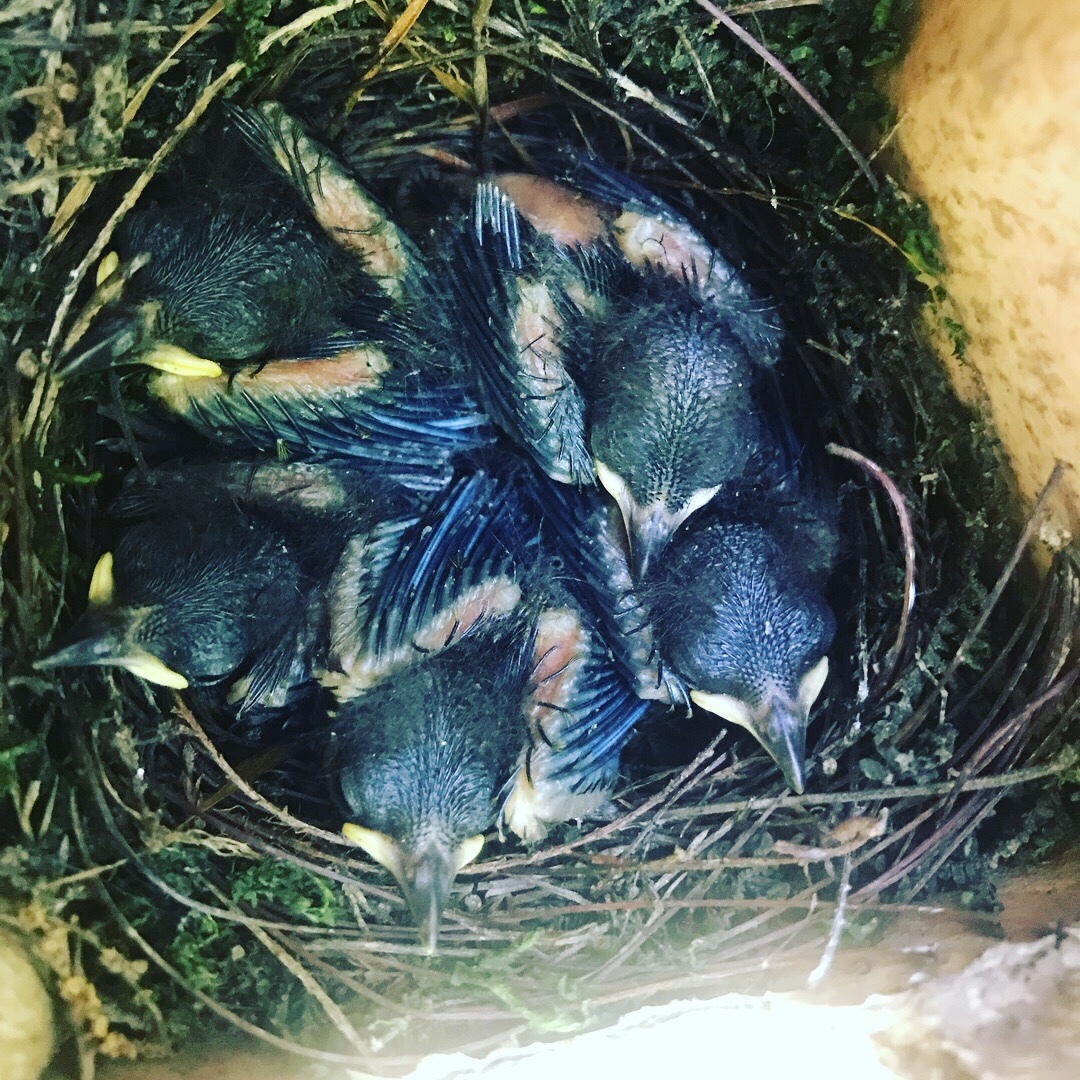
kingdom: Animalia
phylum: Chordata
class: Aves
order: Passeriformes
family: Parulidae
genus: Protonotaria
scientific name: Protonotaria citrea
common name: Prothonotary warbler
